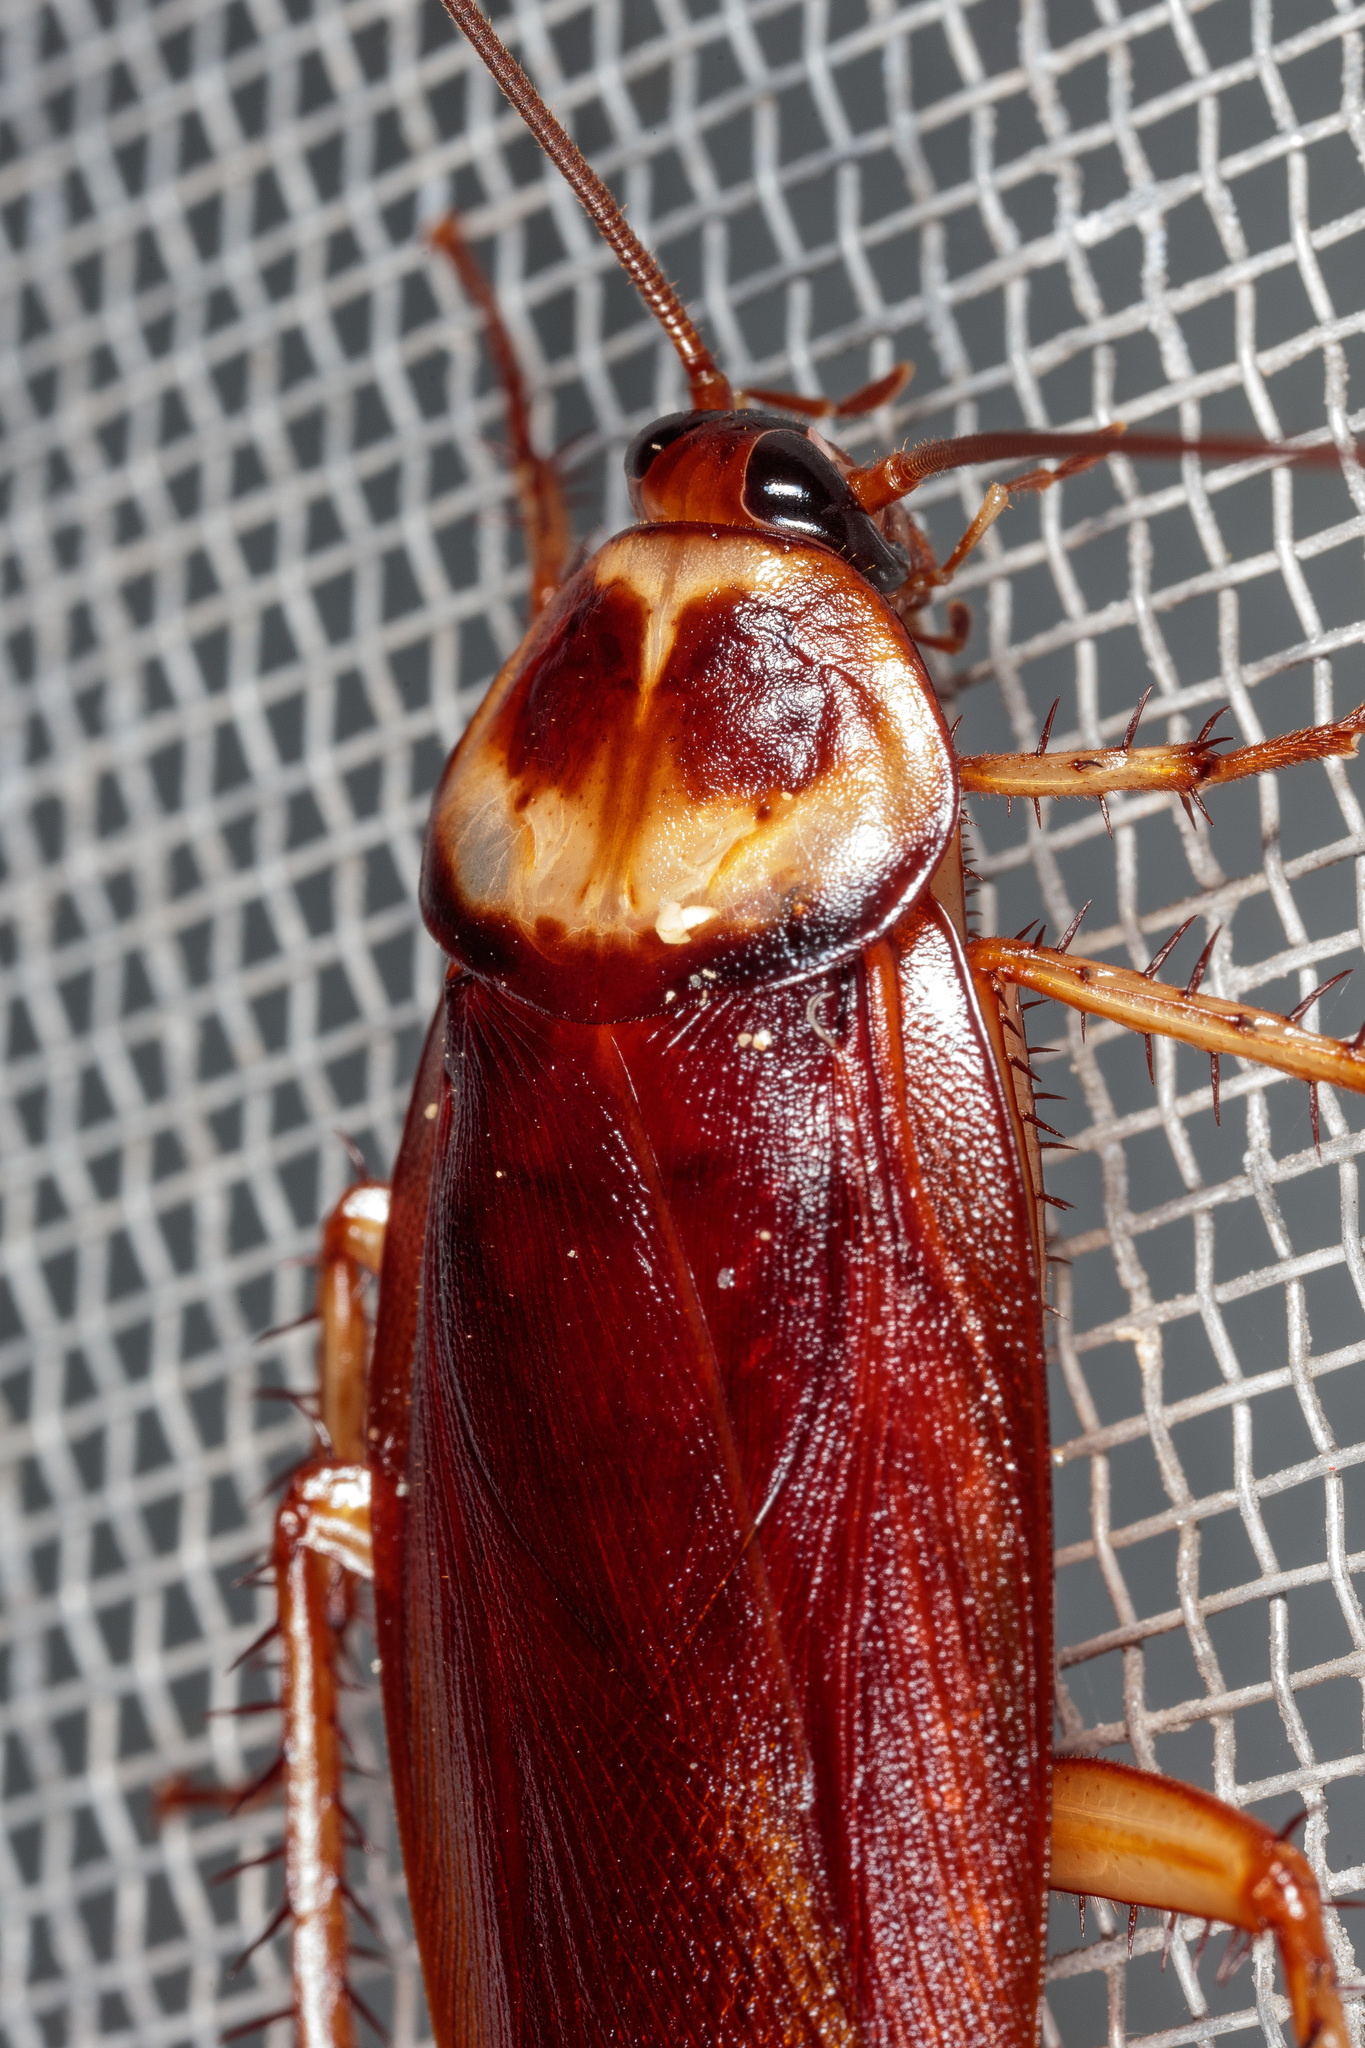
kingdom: Animalia
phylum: Arthropoda
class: Insecta
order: Blattodea
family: Blattidae
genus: Periplaneta
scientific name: Periplaneta americana
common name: American cockroach
